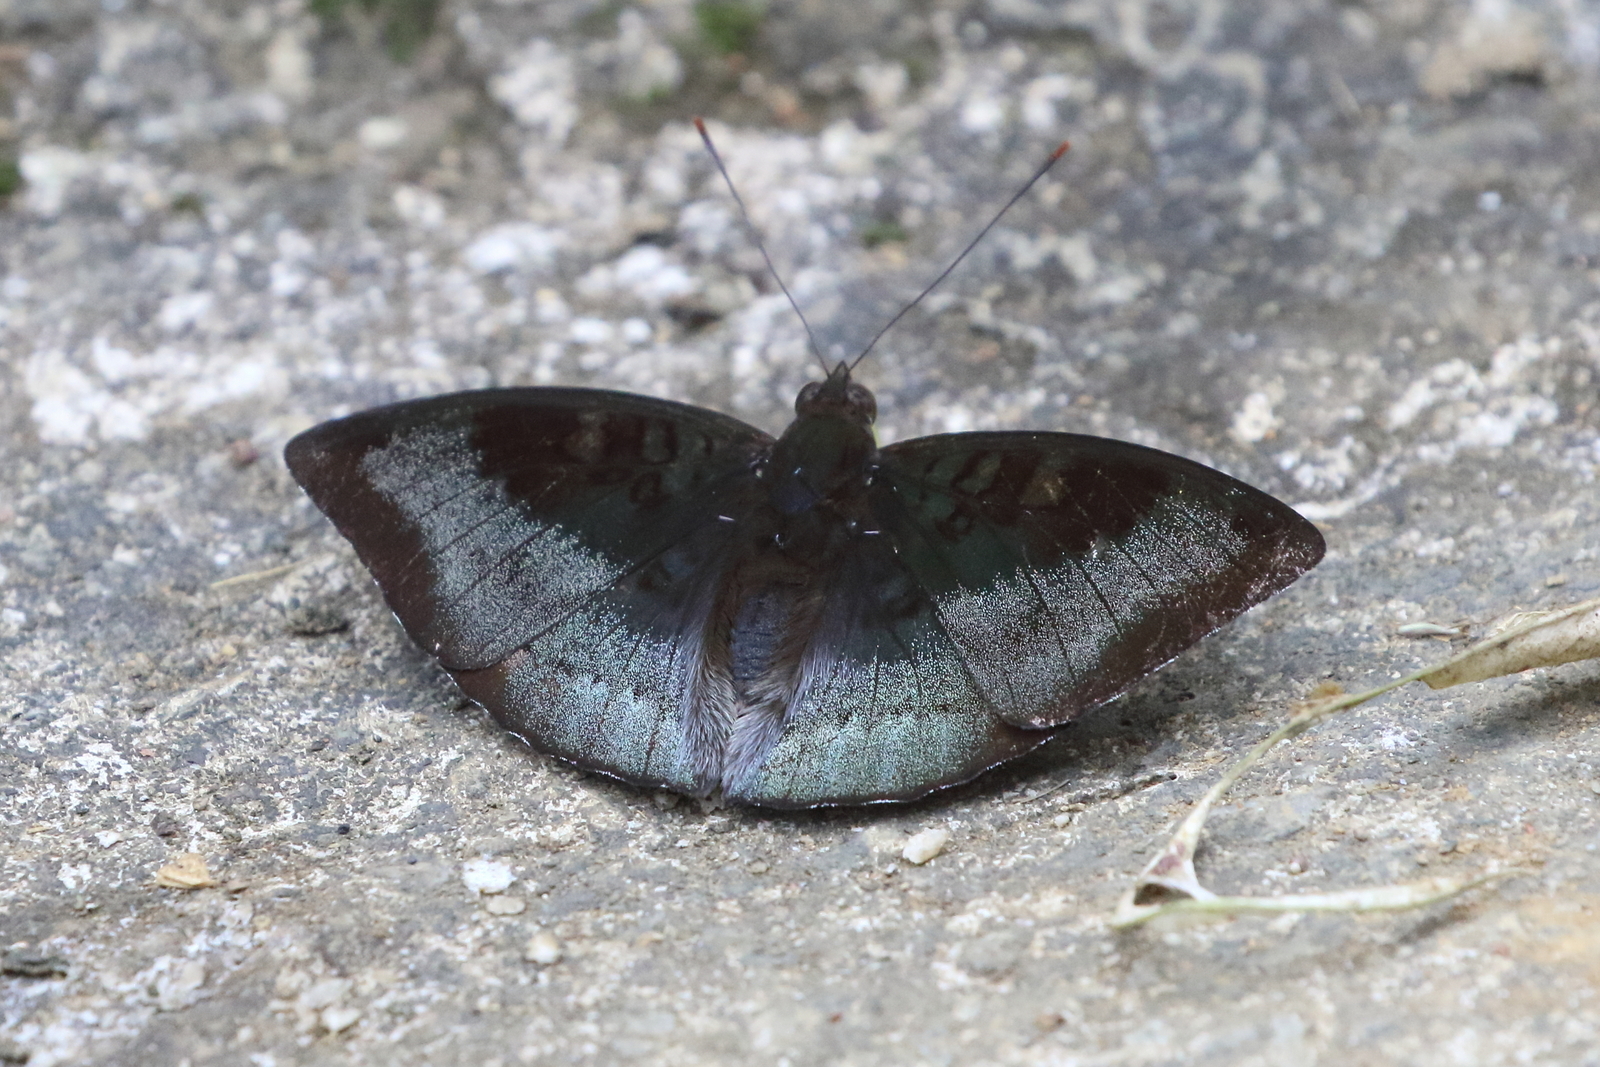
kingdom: Animalia
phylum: Arthropoda
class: Insecta
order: Lepidoptera
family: Nymphalidae
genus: Euthalia
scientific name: Euthalia monina
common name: Powdered baron
